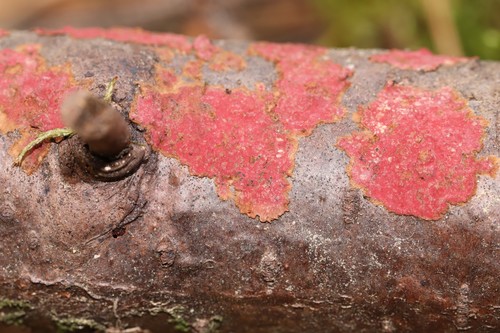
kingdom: Fungi
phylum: Basidiomycota
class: Agaricomycetes
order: Hymenochaetales
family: Hymenochaetaceae
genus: Hymenochaete
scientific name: Hymenochaete cruenta
